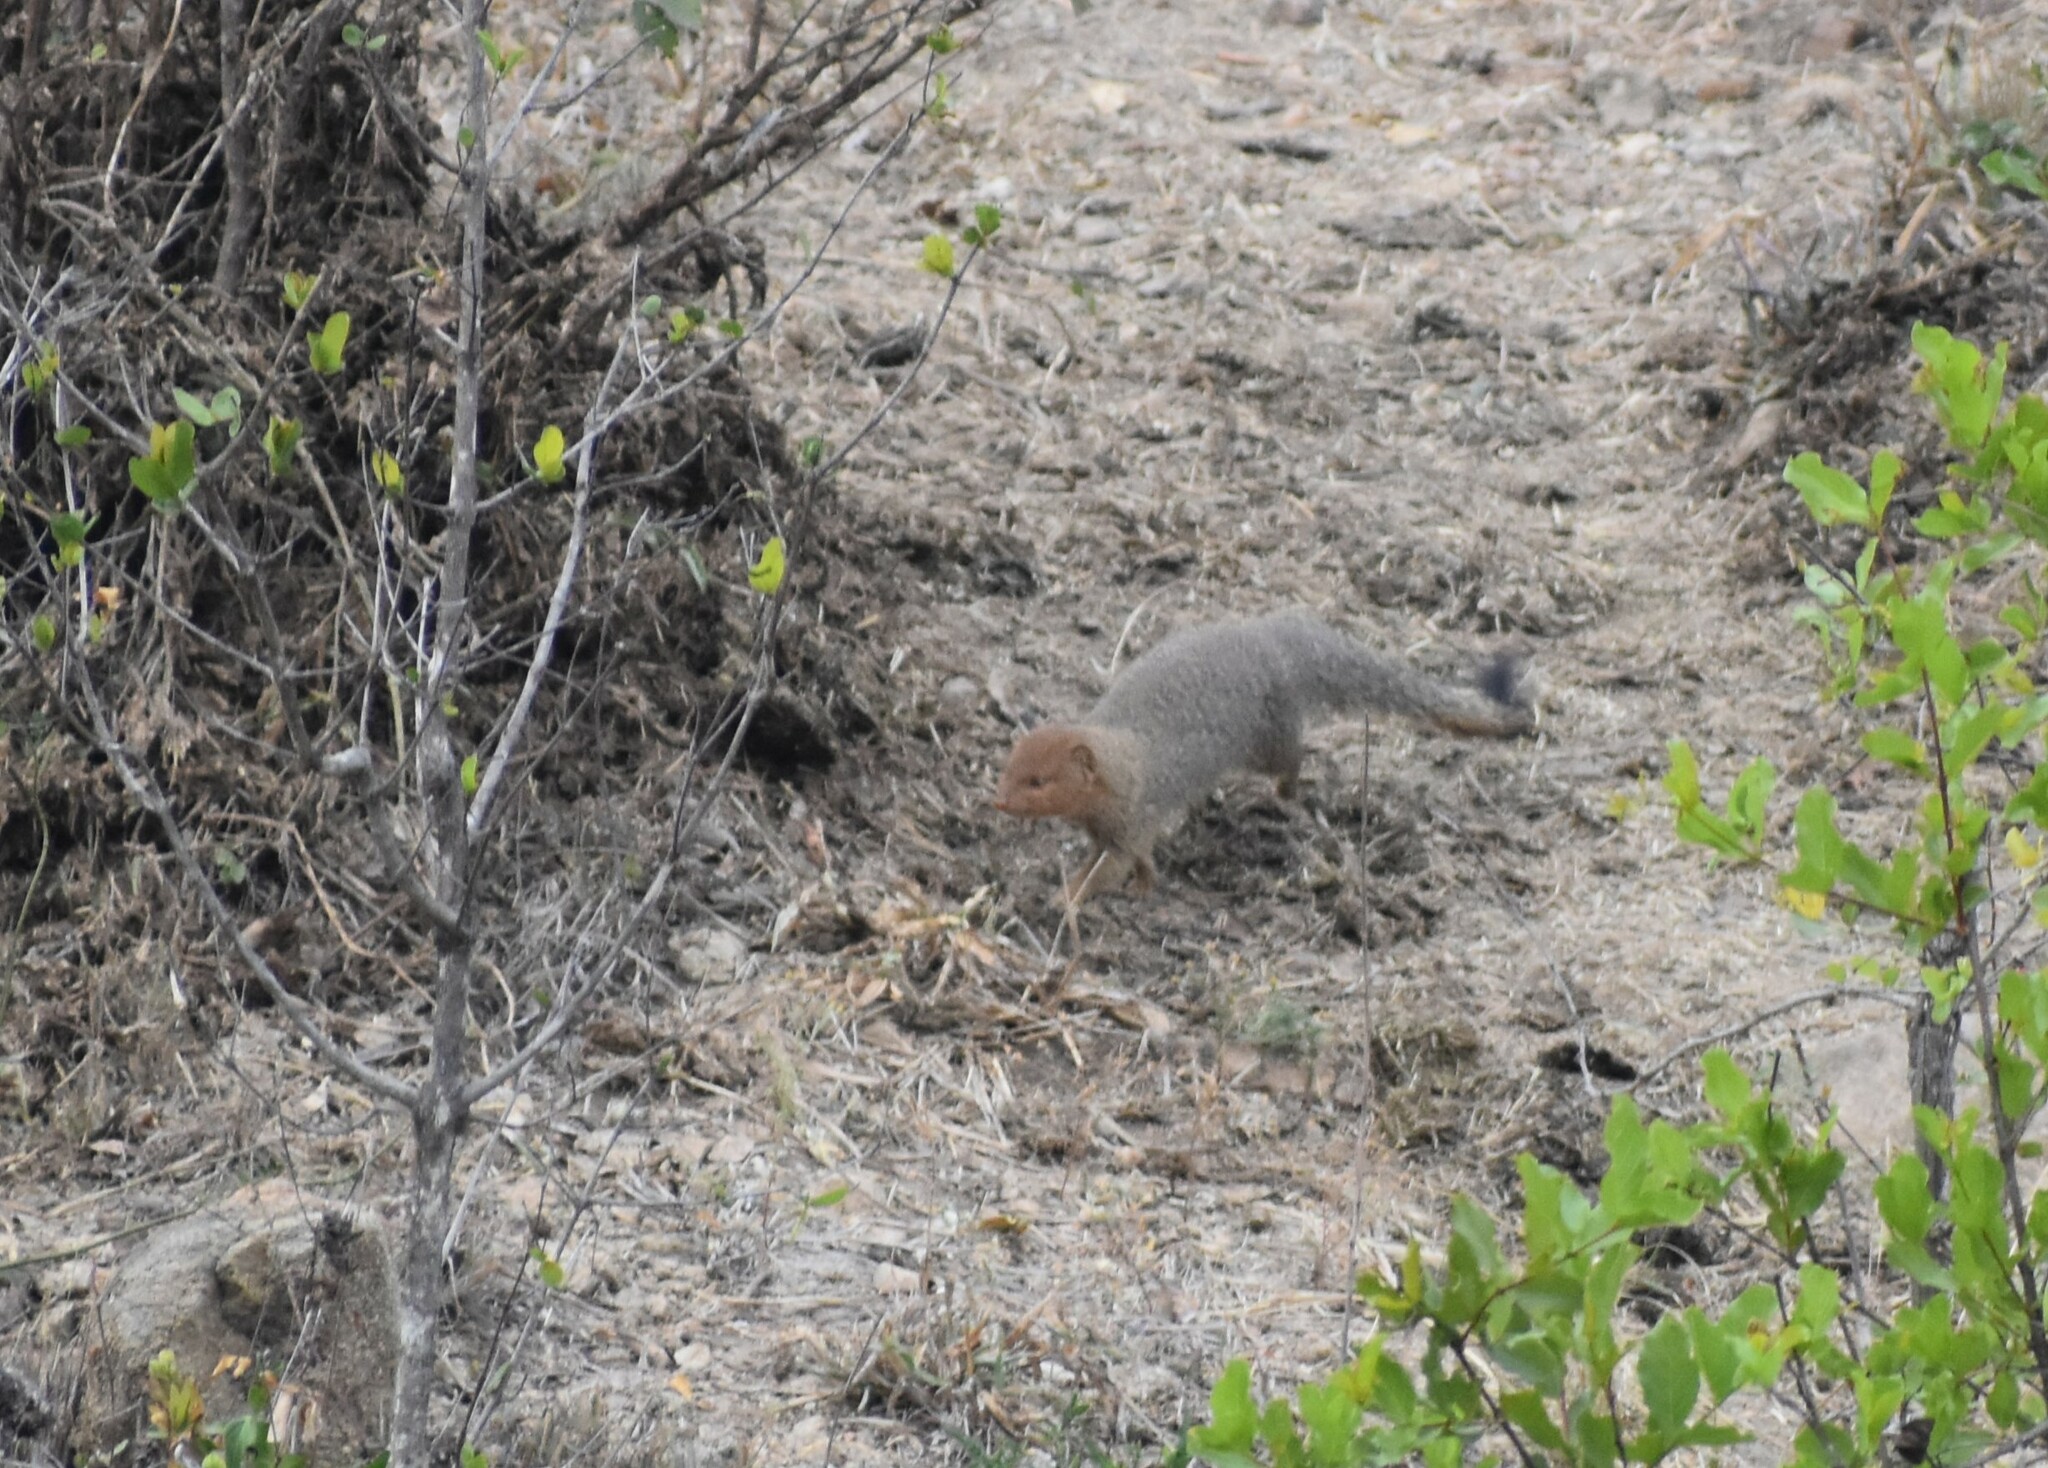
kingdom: Animalia
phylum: Chordata
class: Mammalia
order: Carnivora
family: Herpestidae
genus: Galerella
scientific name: Galerella sanguinea
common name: Slender mongoose
